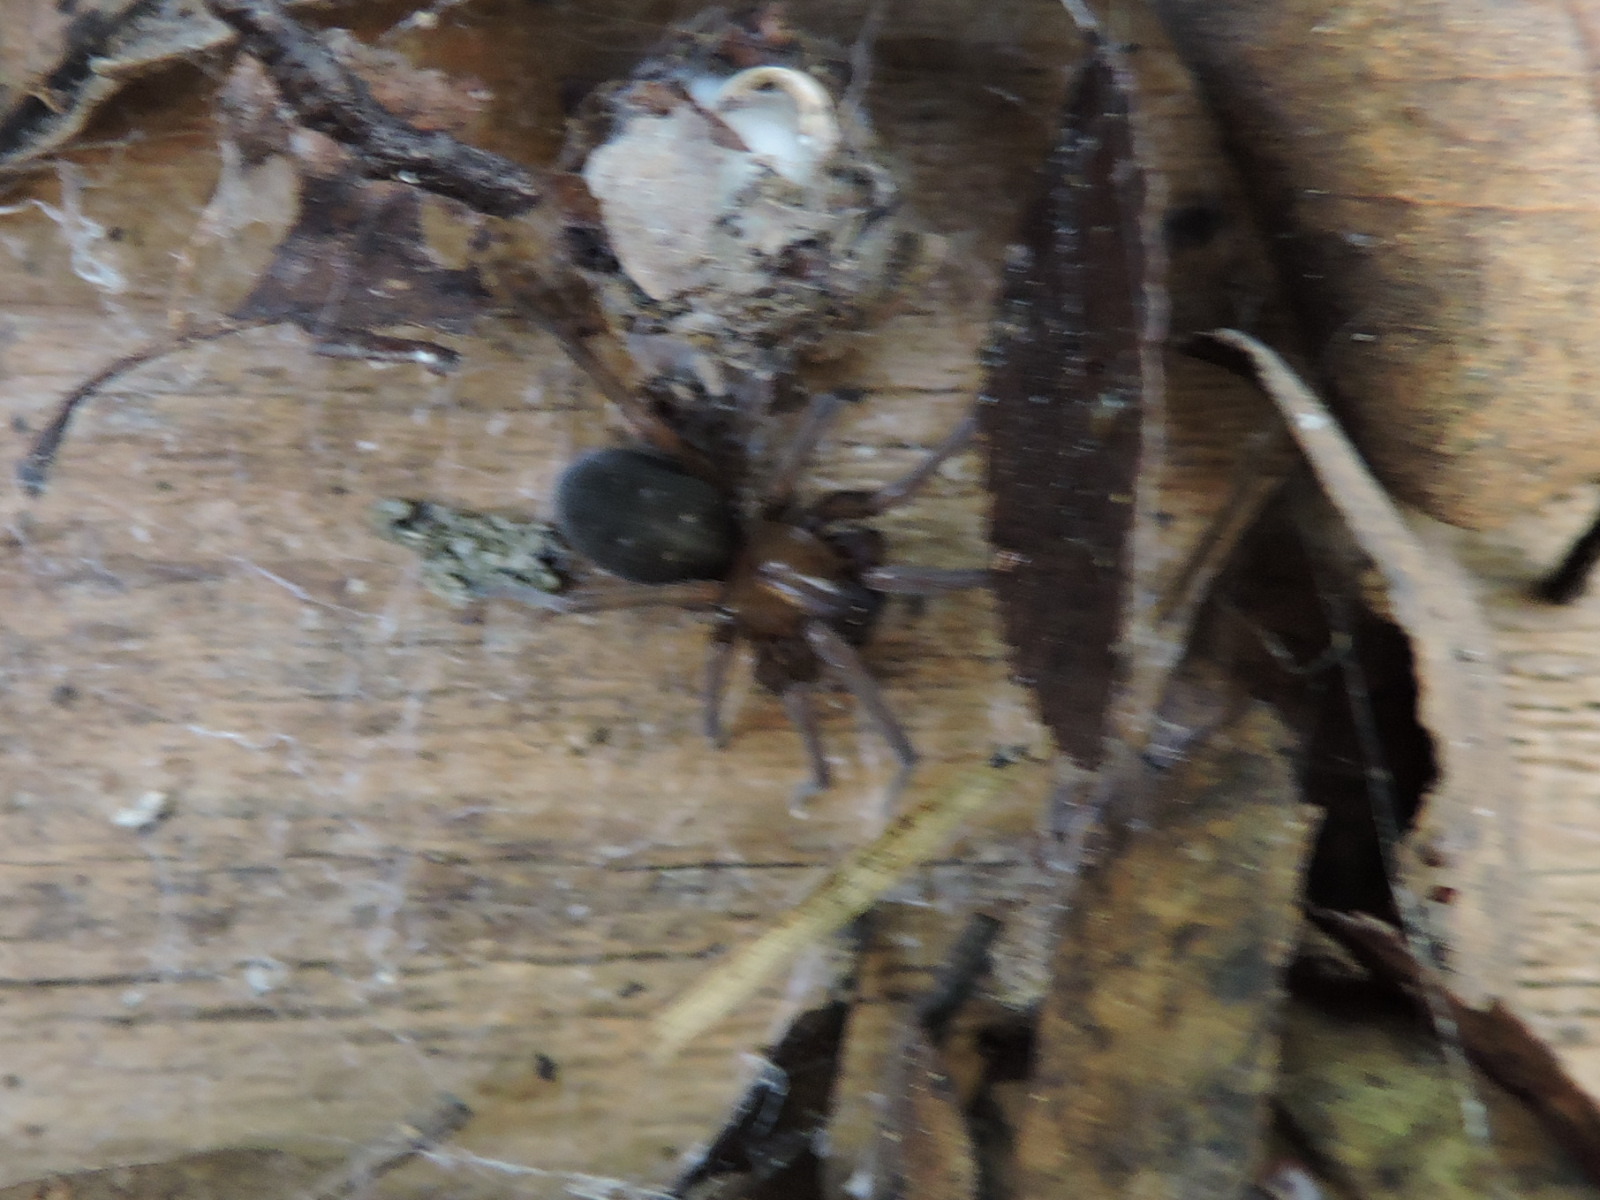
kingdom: Animalia
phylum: Arthropoda
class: Arachnida
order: Araneae
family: Desidae
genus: Metaltella
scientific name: Metaltella simoni
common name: Cribellate spider
